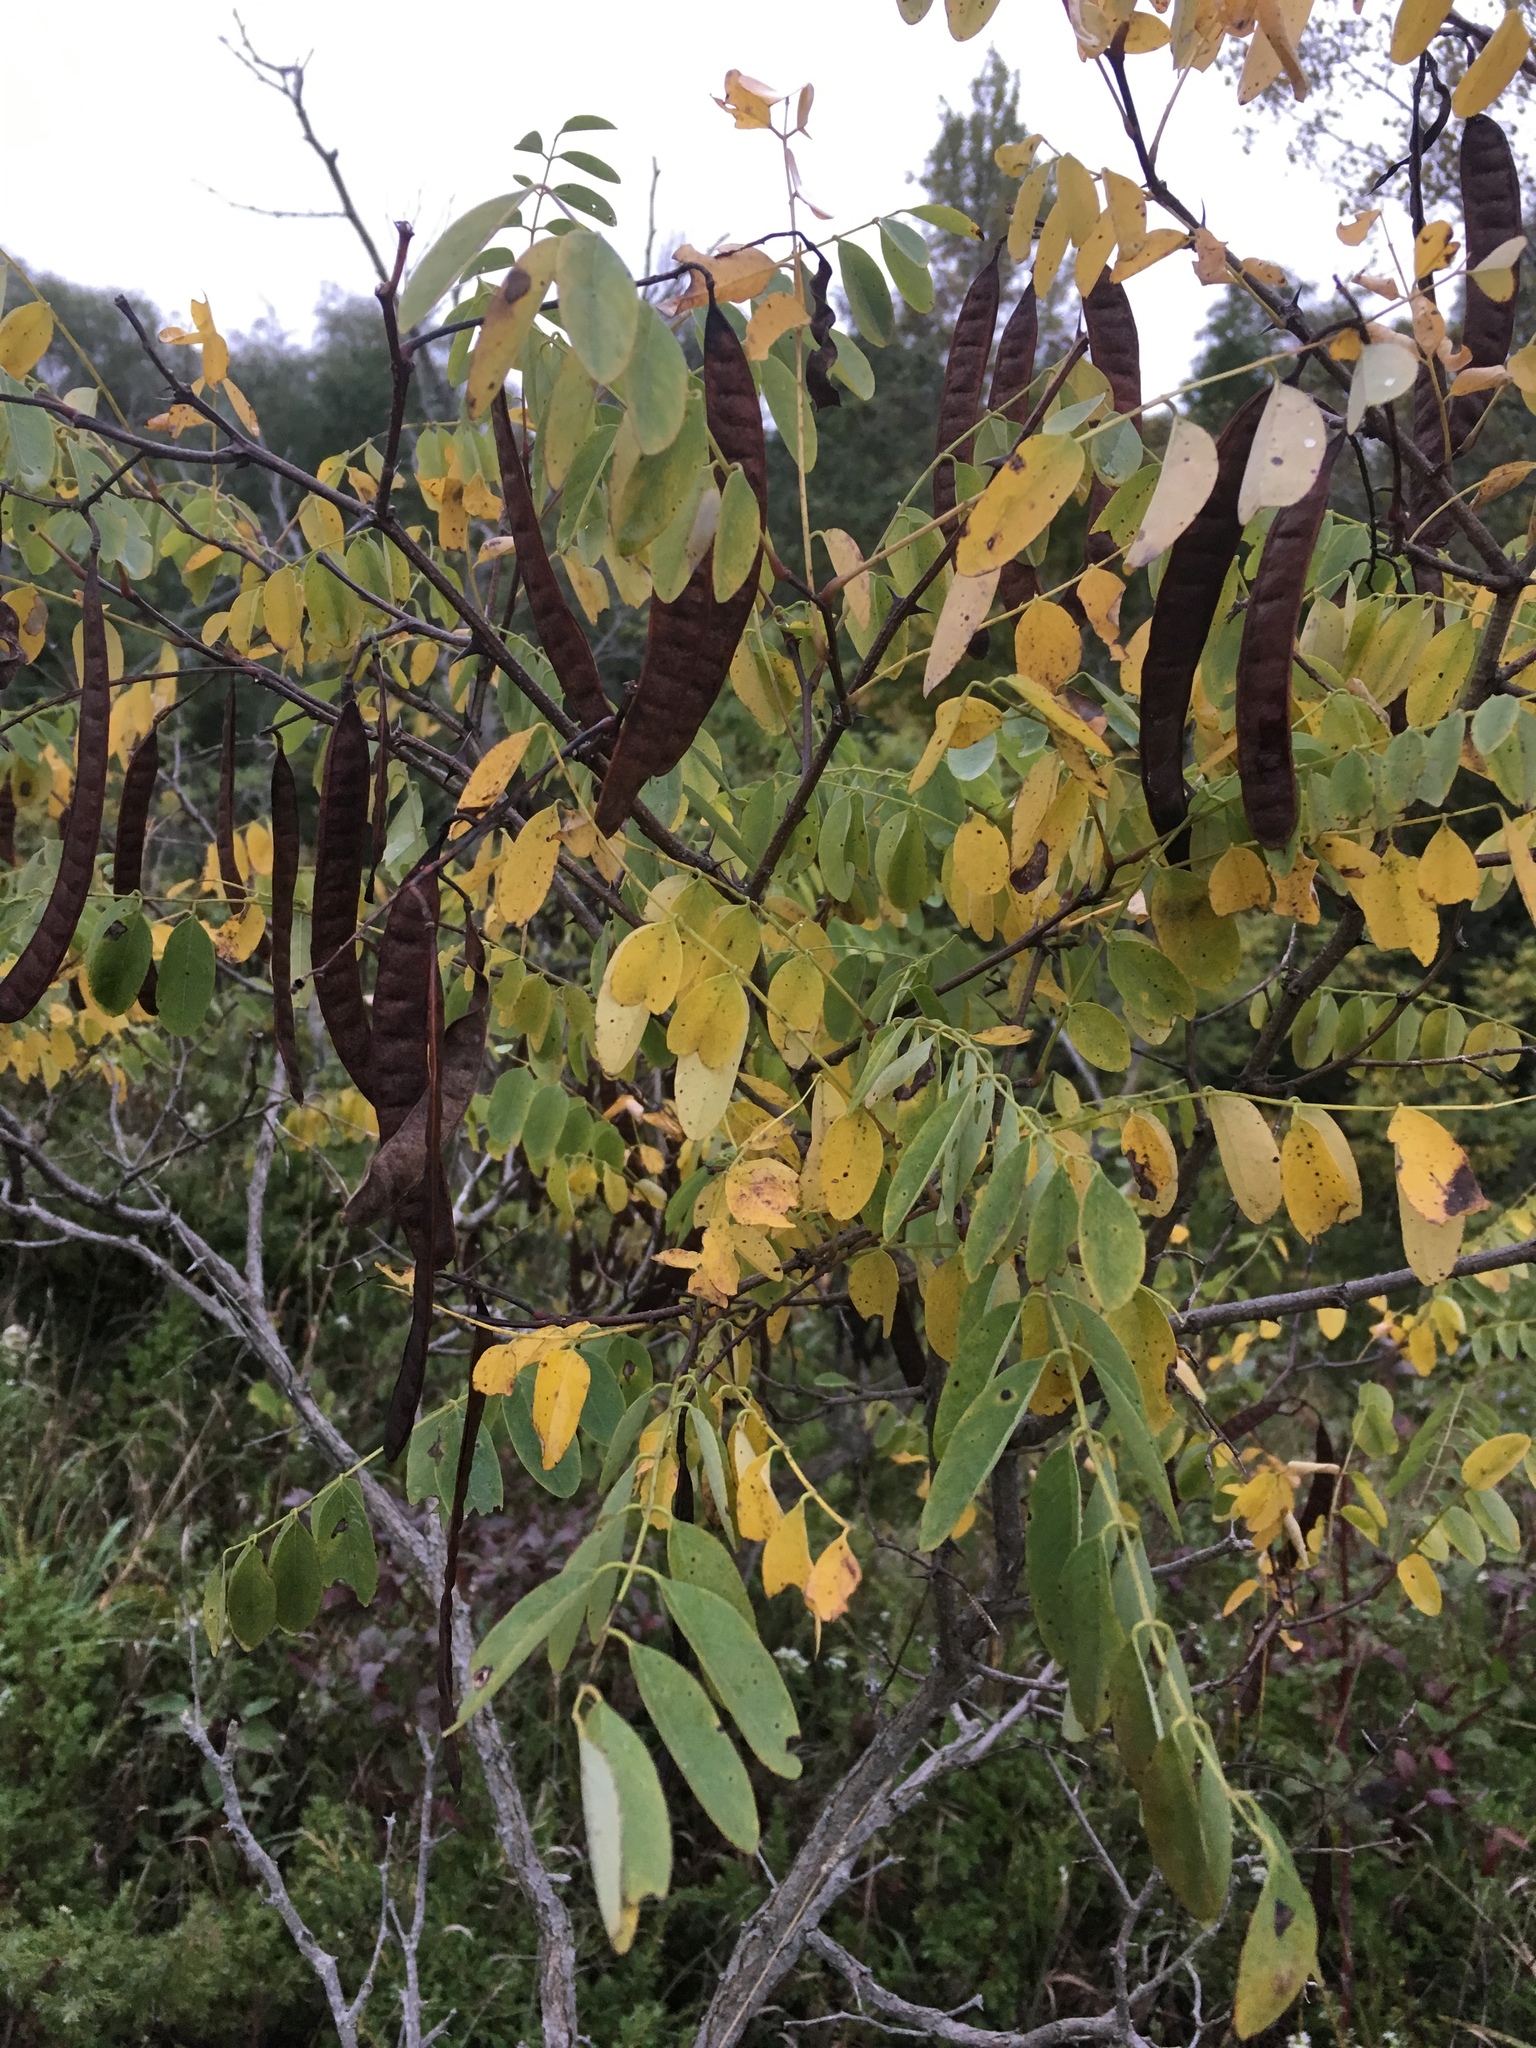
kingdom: Plantae
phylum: Tracheophyta
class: Magnoliopsida
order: Fabales
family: Fabaceae
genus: Robinia
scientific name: Robinia pseudoacacia
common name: Black locust
